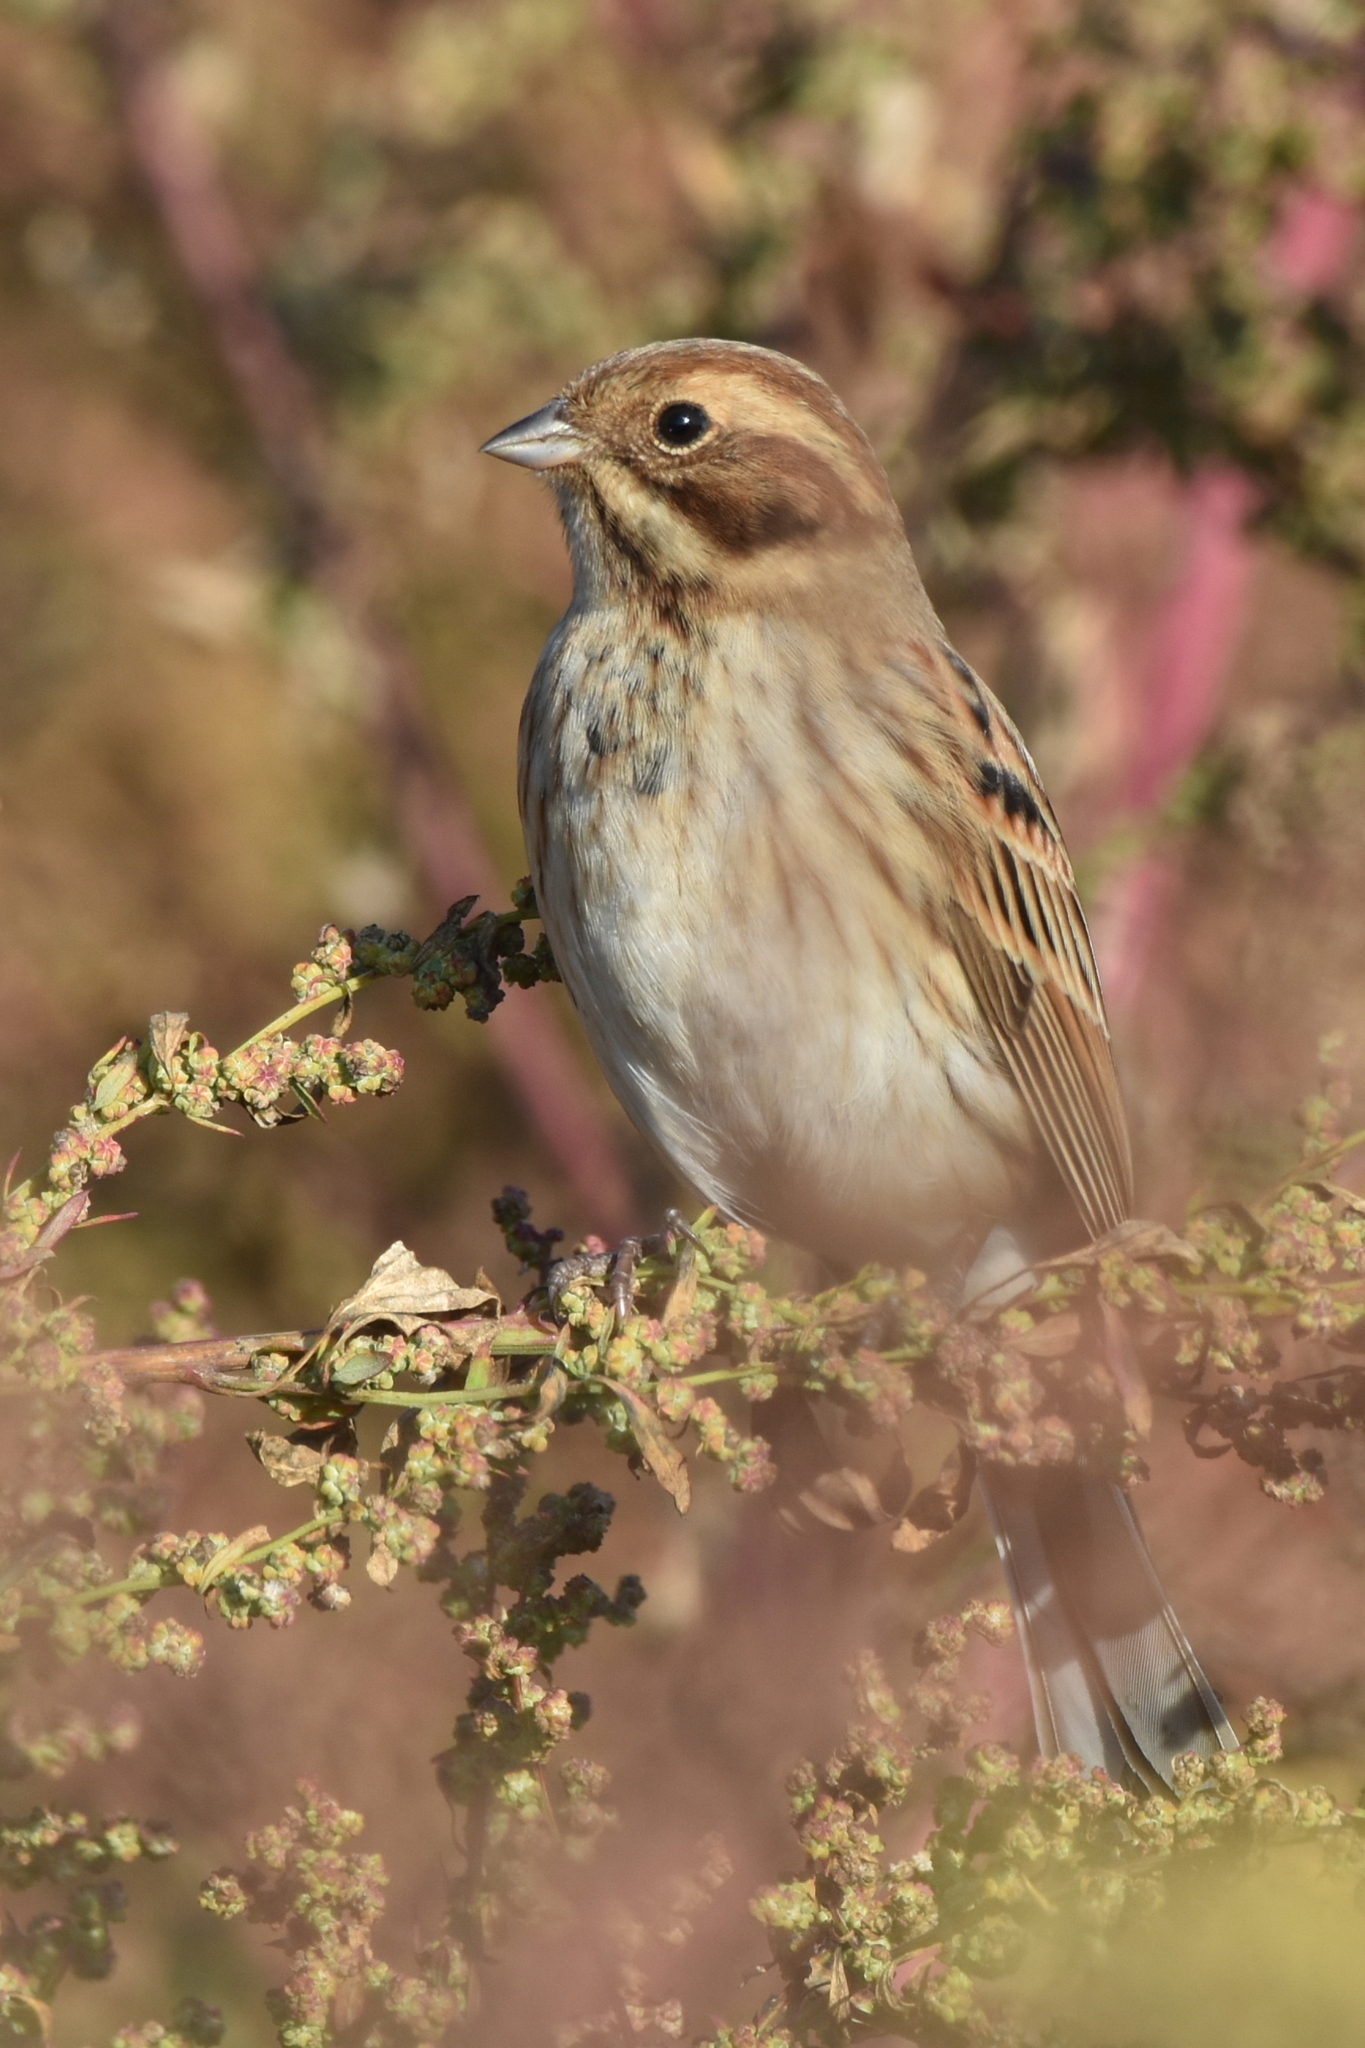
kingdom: Animalia
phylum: Chordata
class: Aves
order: Passeriformes
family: Emberizidae
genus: Emberiza
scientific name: Emberiza schoeniclus
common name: Reed bunting
